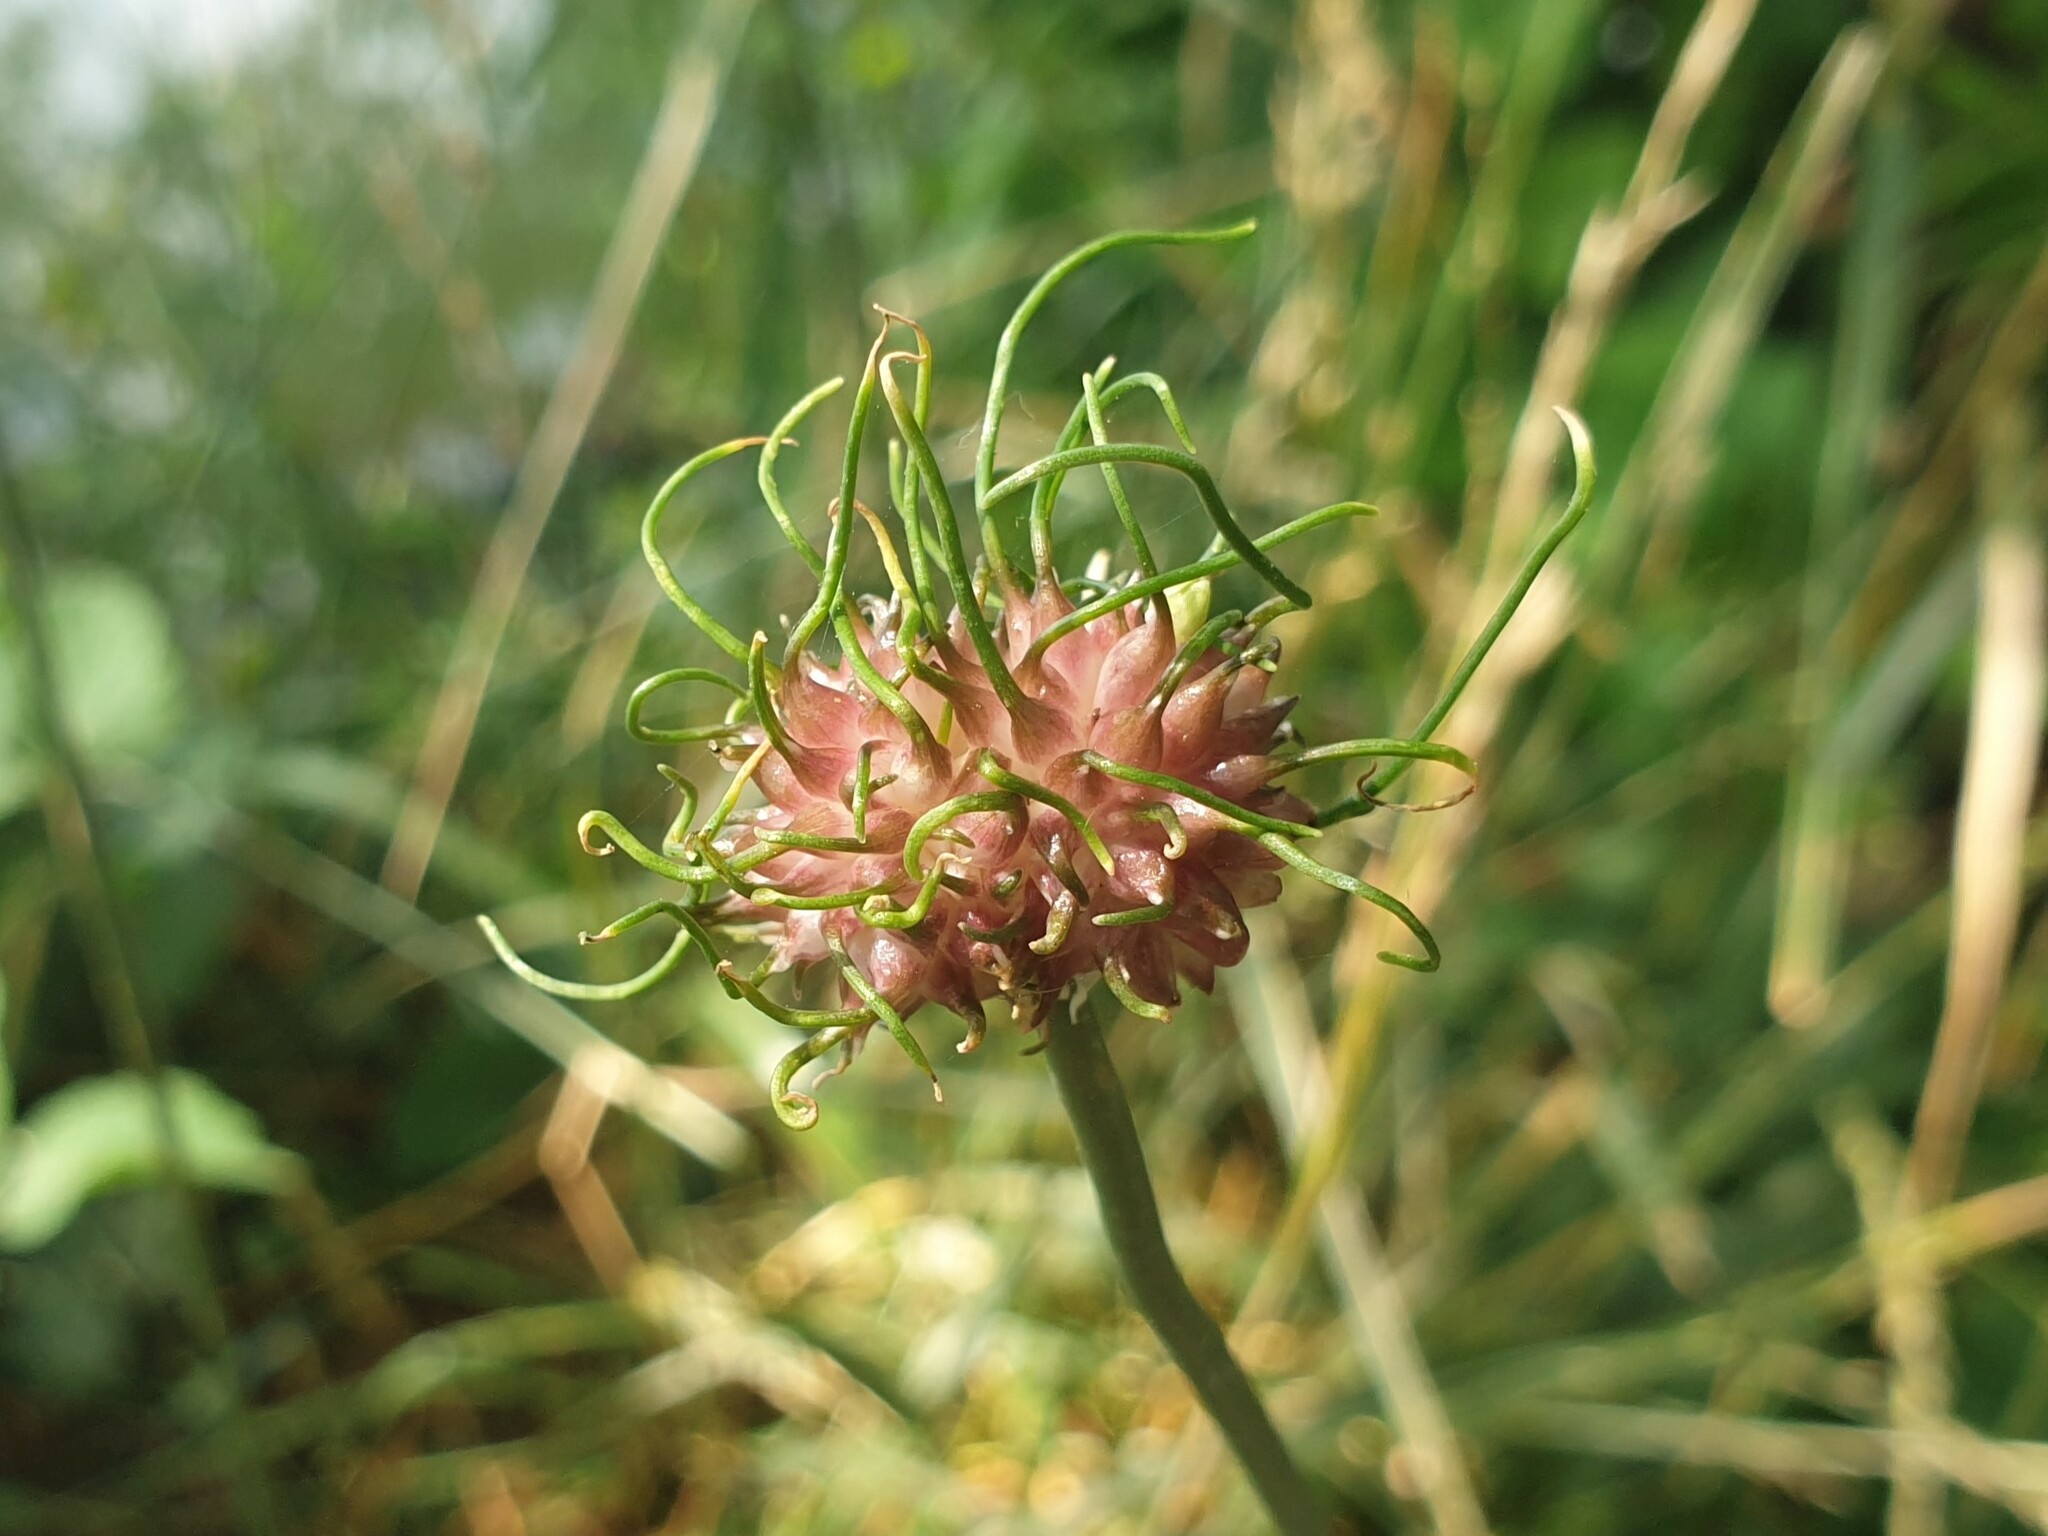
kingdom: Plantae
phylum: Tracheophyta
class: Liliopsida
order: Asparagales
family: Amaryllidaceae
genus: Allium
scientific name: Allium vineale
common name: Crow garlic
